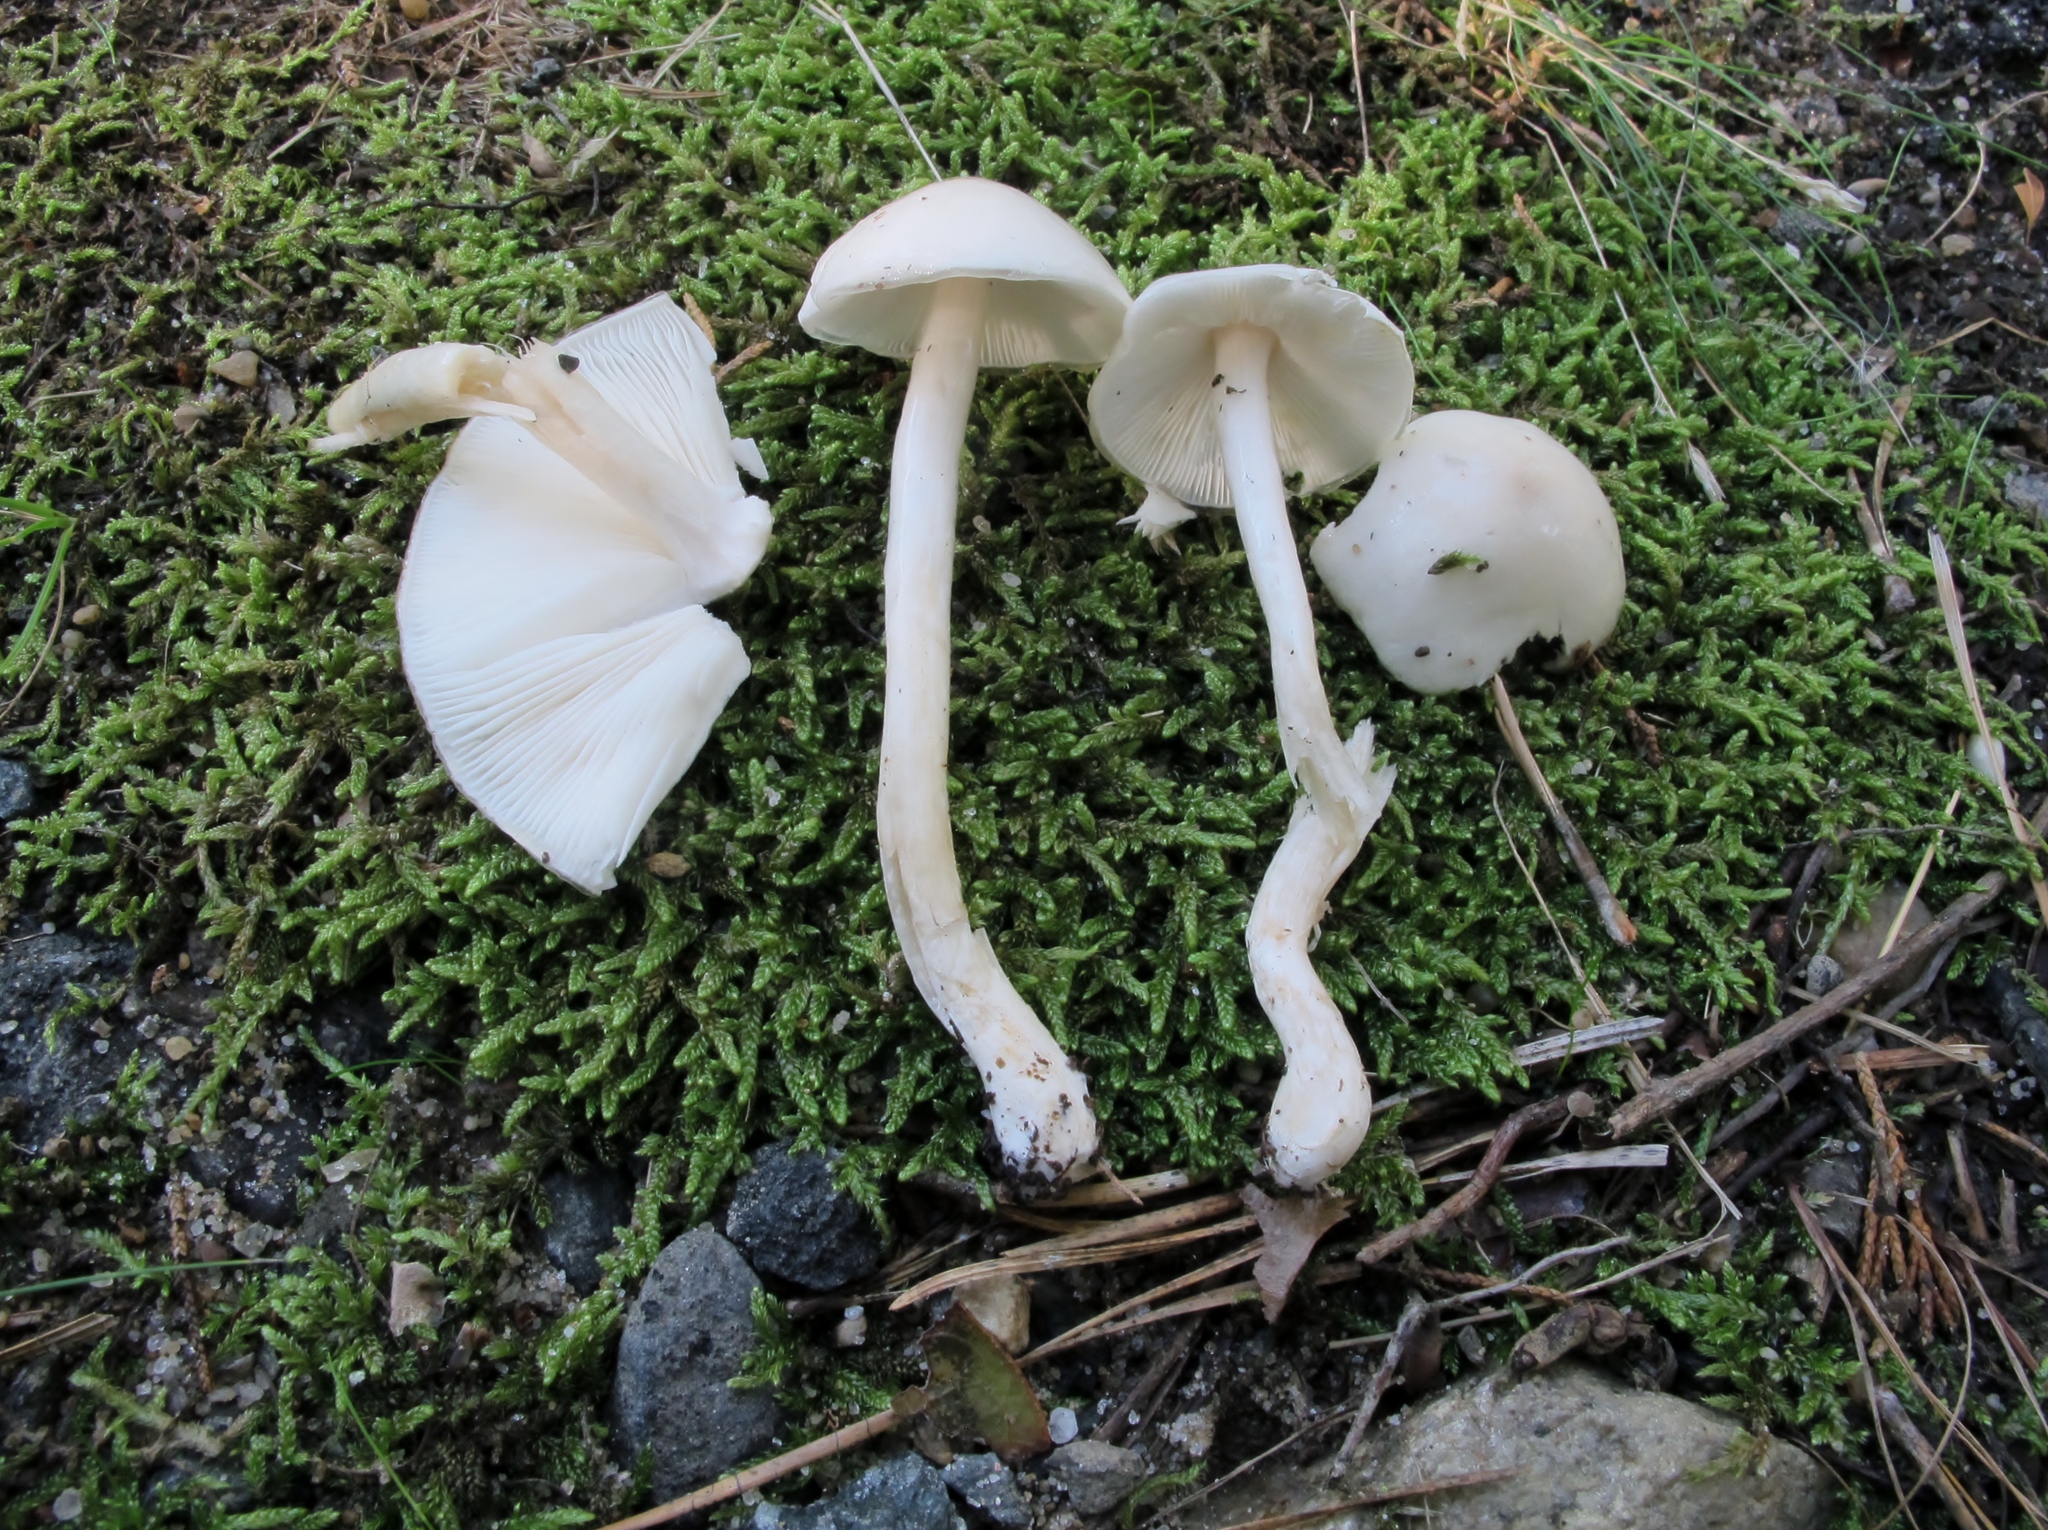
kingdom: Fungi
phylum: Basidiomycota
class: Agaricomycetes
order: Agaricales
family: Amanitaceae
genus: Zhuliangomyces
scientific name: Zhuliangomyces illinitus
